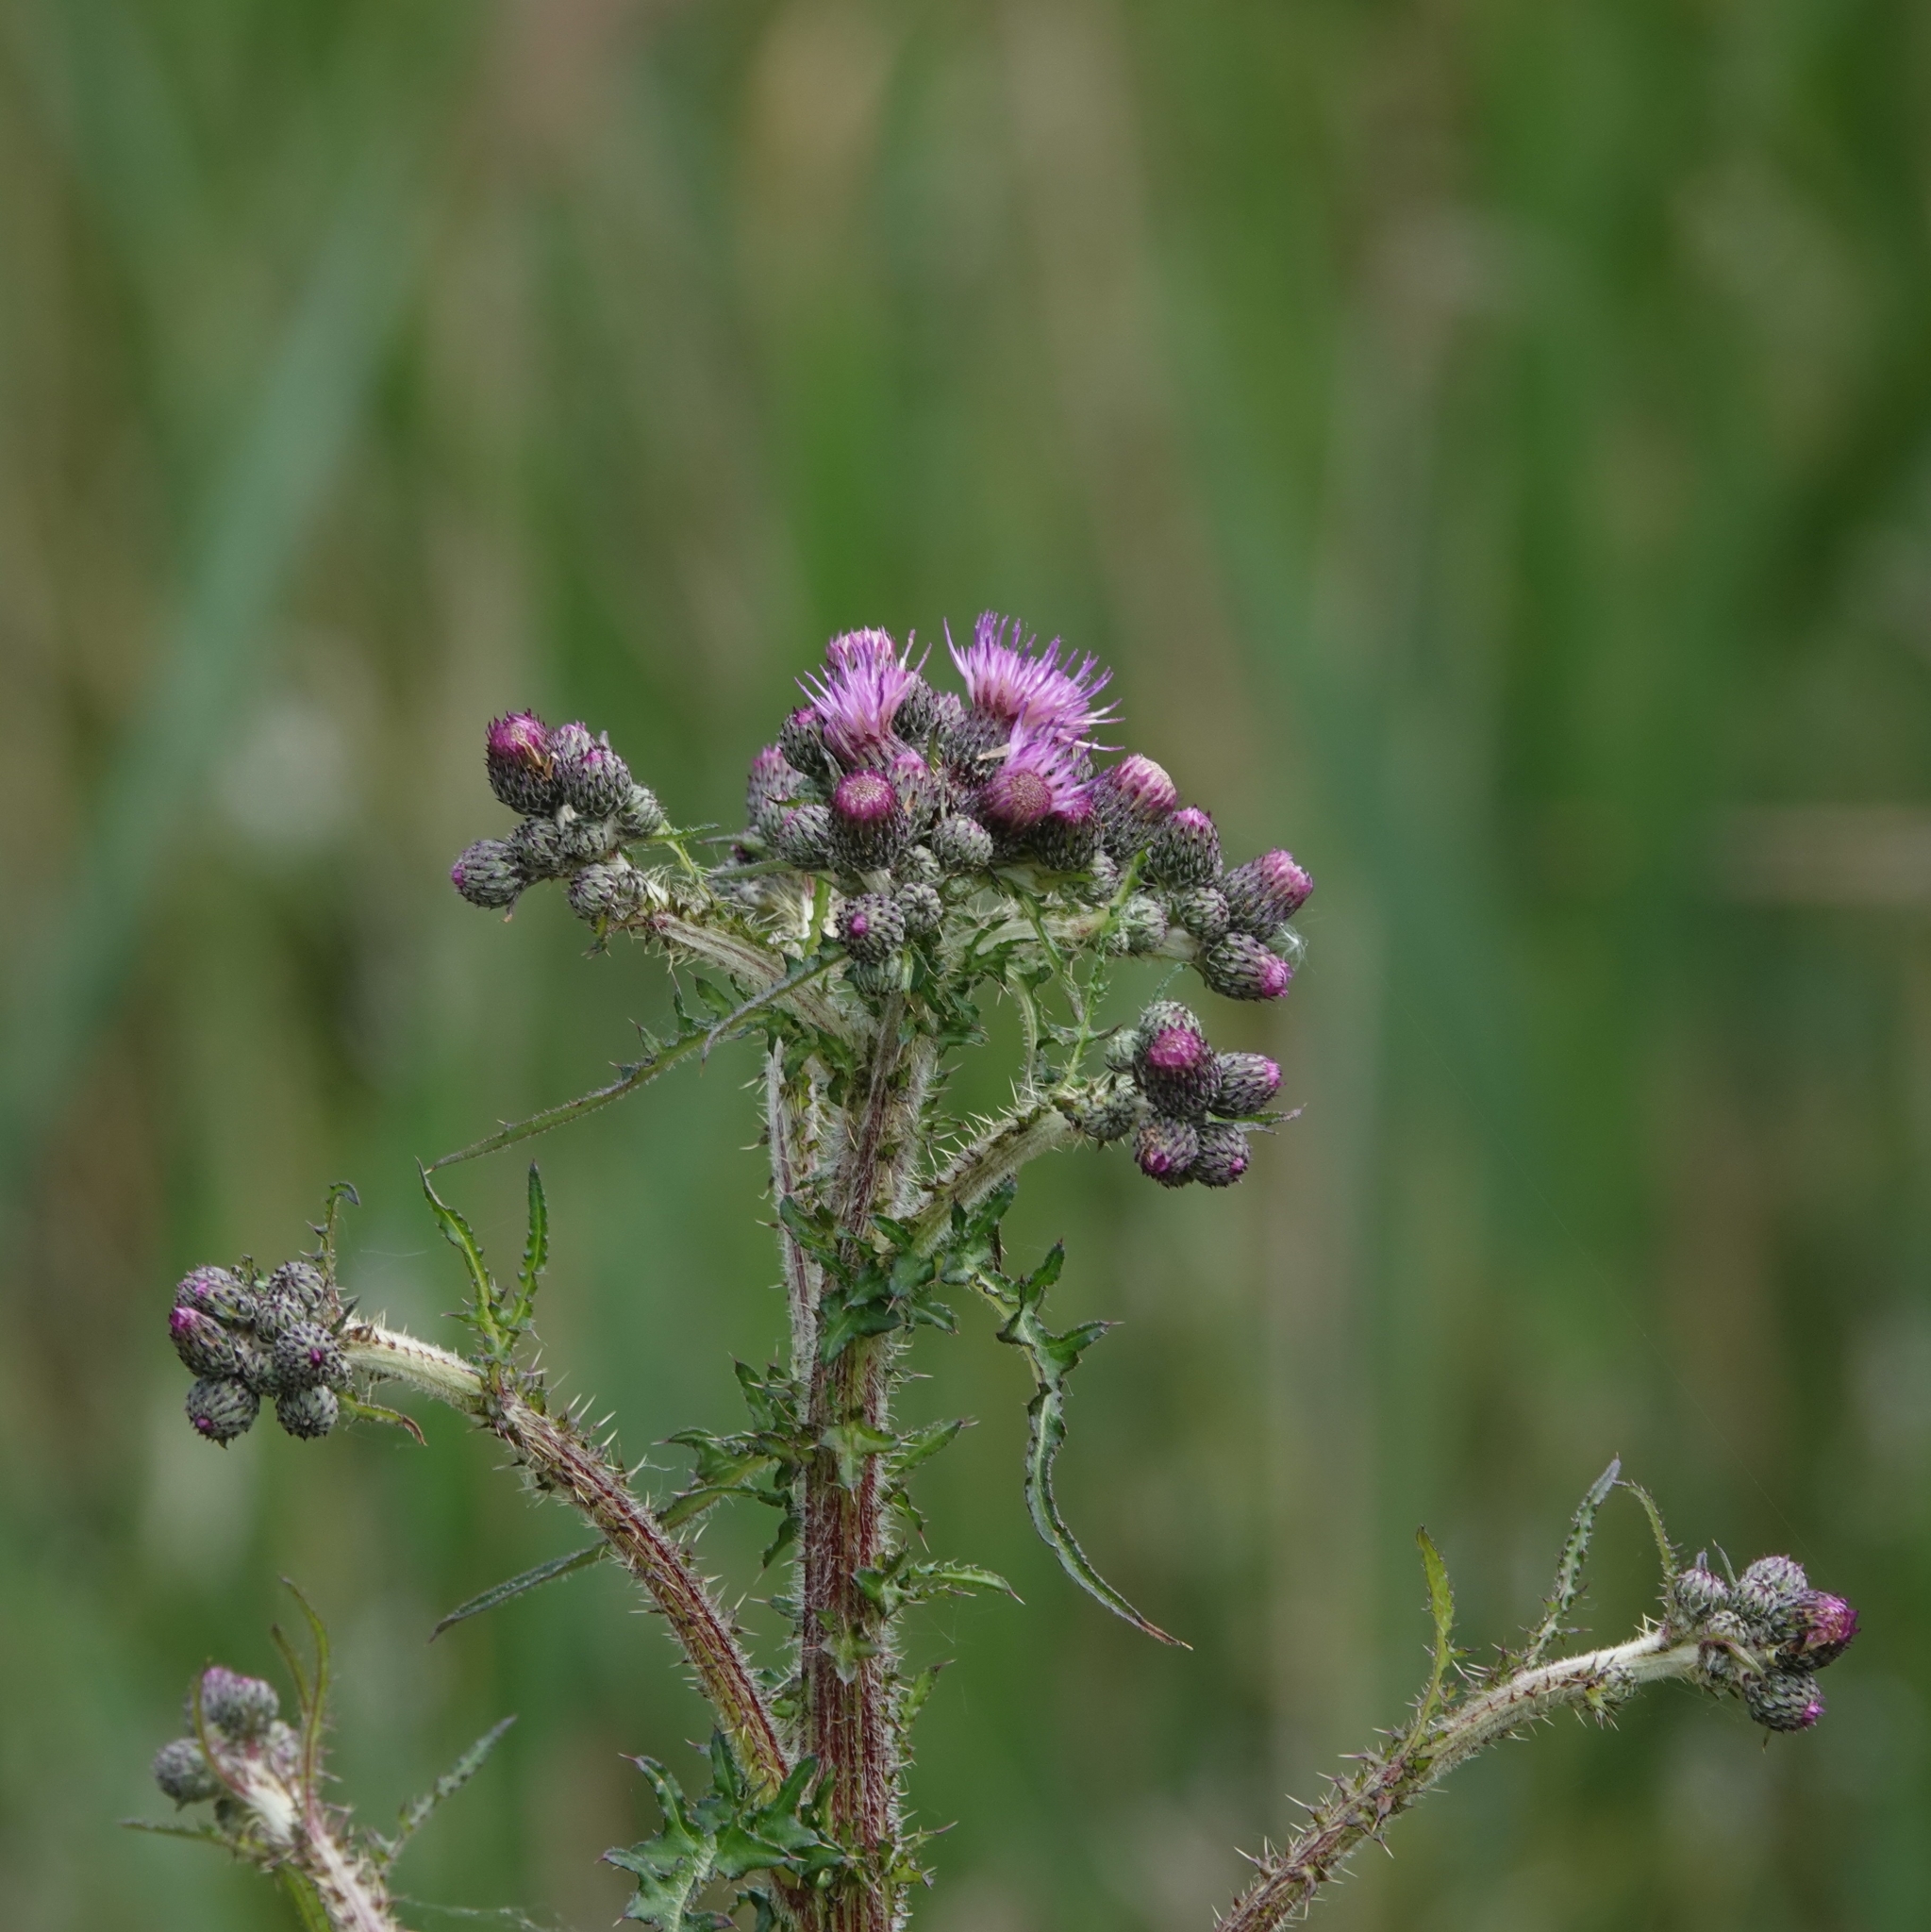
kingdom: Plantae
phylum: Tracheophyta
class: Magnoliopsida
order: Asterales
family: Asteraceae
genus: Cirsium
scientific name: Cirsium palustre
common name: Marsh thistle
